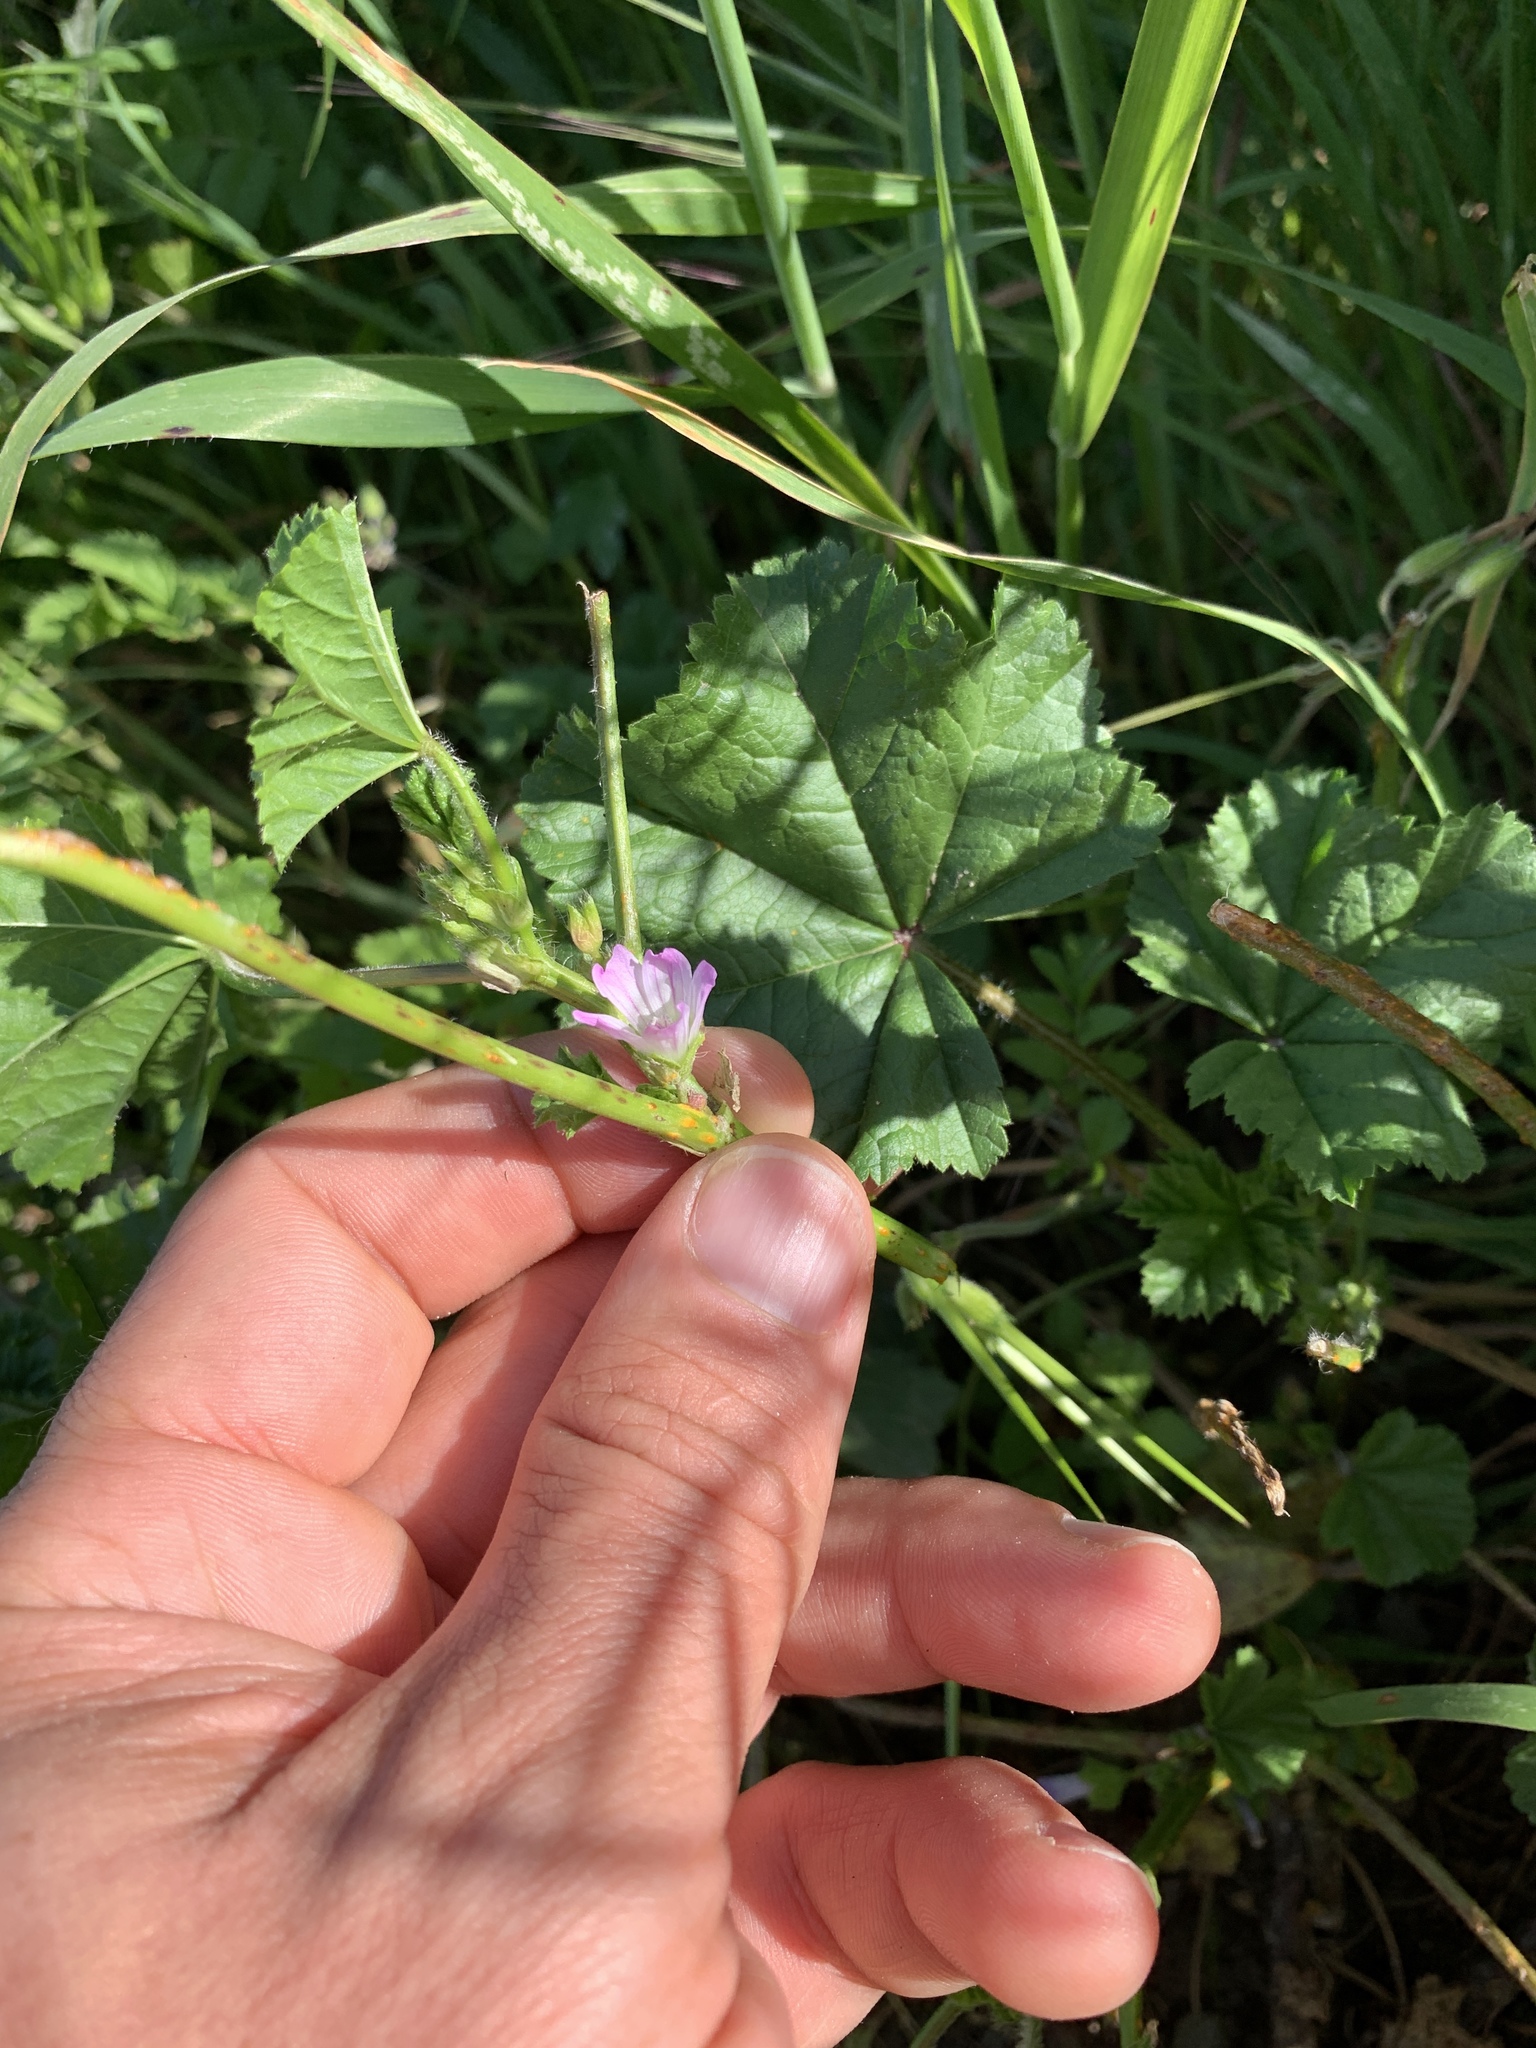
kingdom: Plantae
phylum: Tracheophyta
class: Magnoliopsida
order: Malvales
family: Malvaceae
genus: Malva
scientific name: Malva nicaeensis
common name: French mallow
